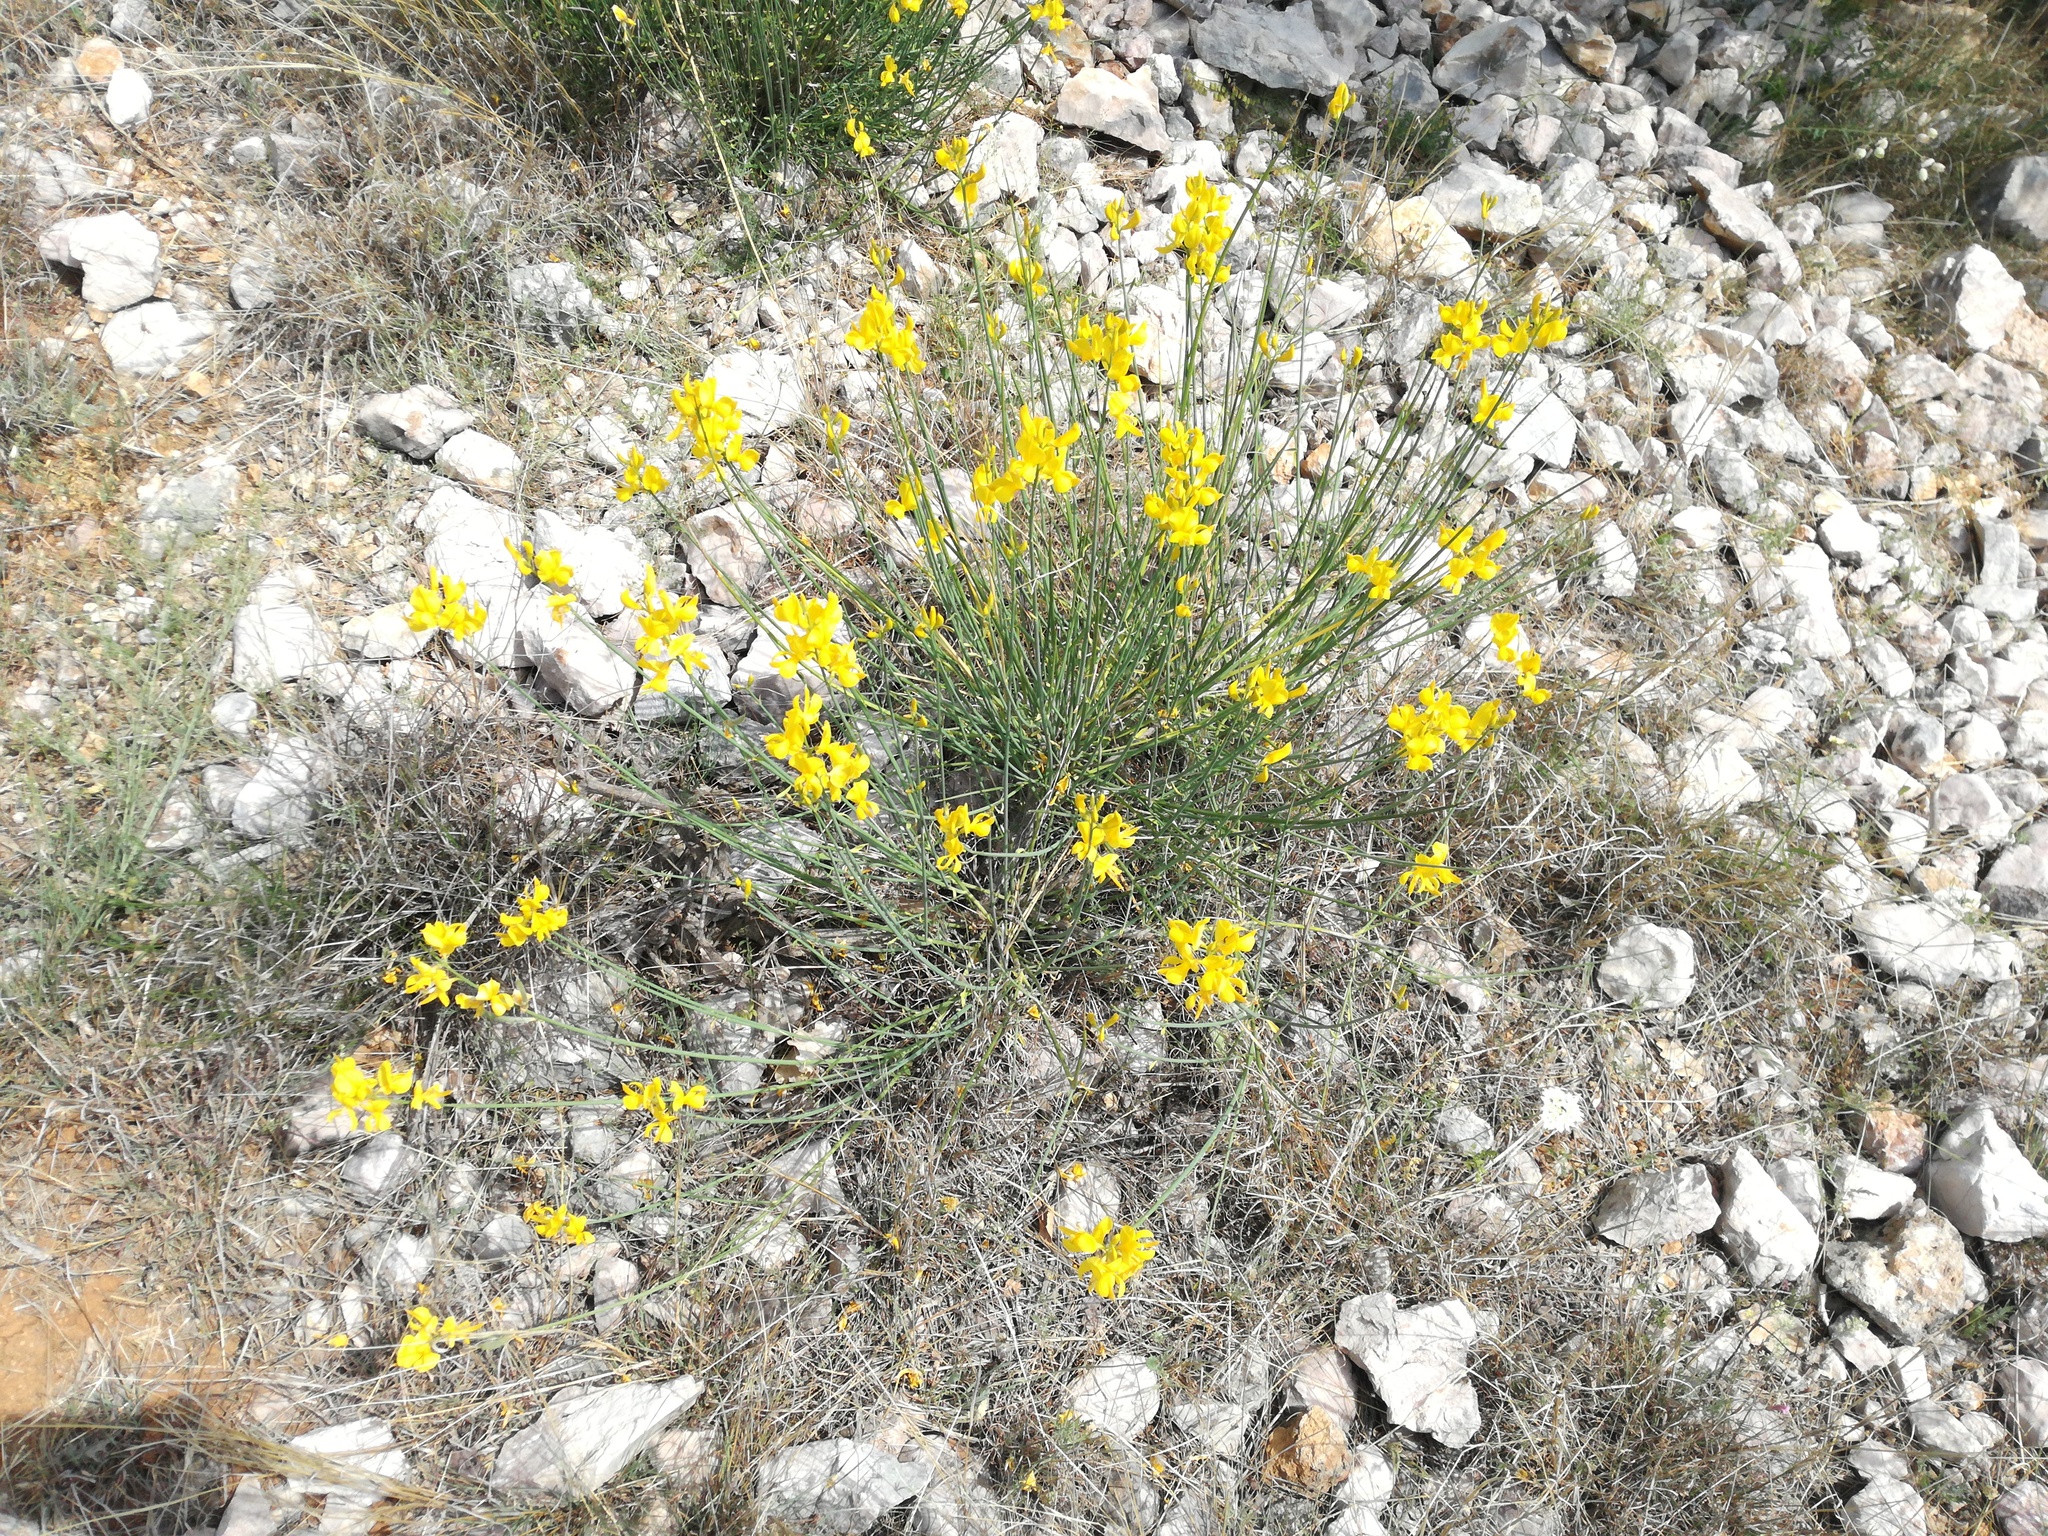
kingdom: Plantae
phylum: Tracheophyta
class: Magnoliopsida
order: Fabales
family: Fabaceae
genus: Spartium
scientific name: Spartium junceum
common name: Spanish broom
